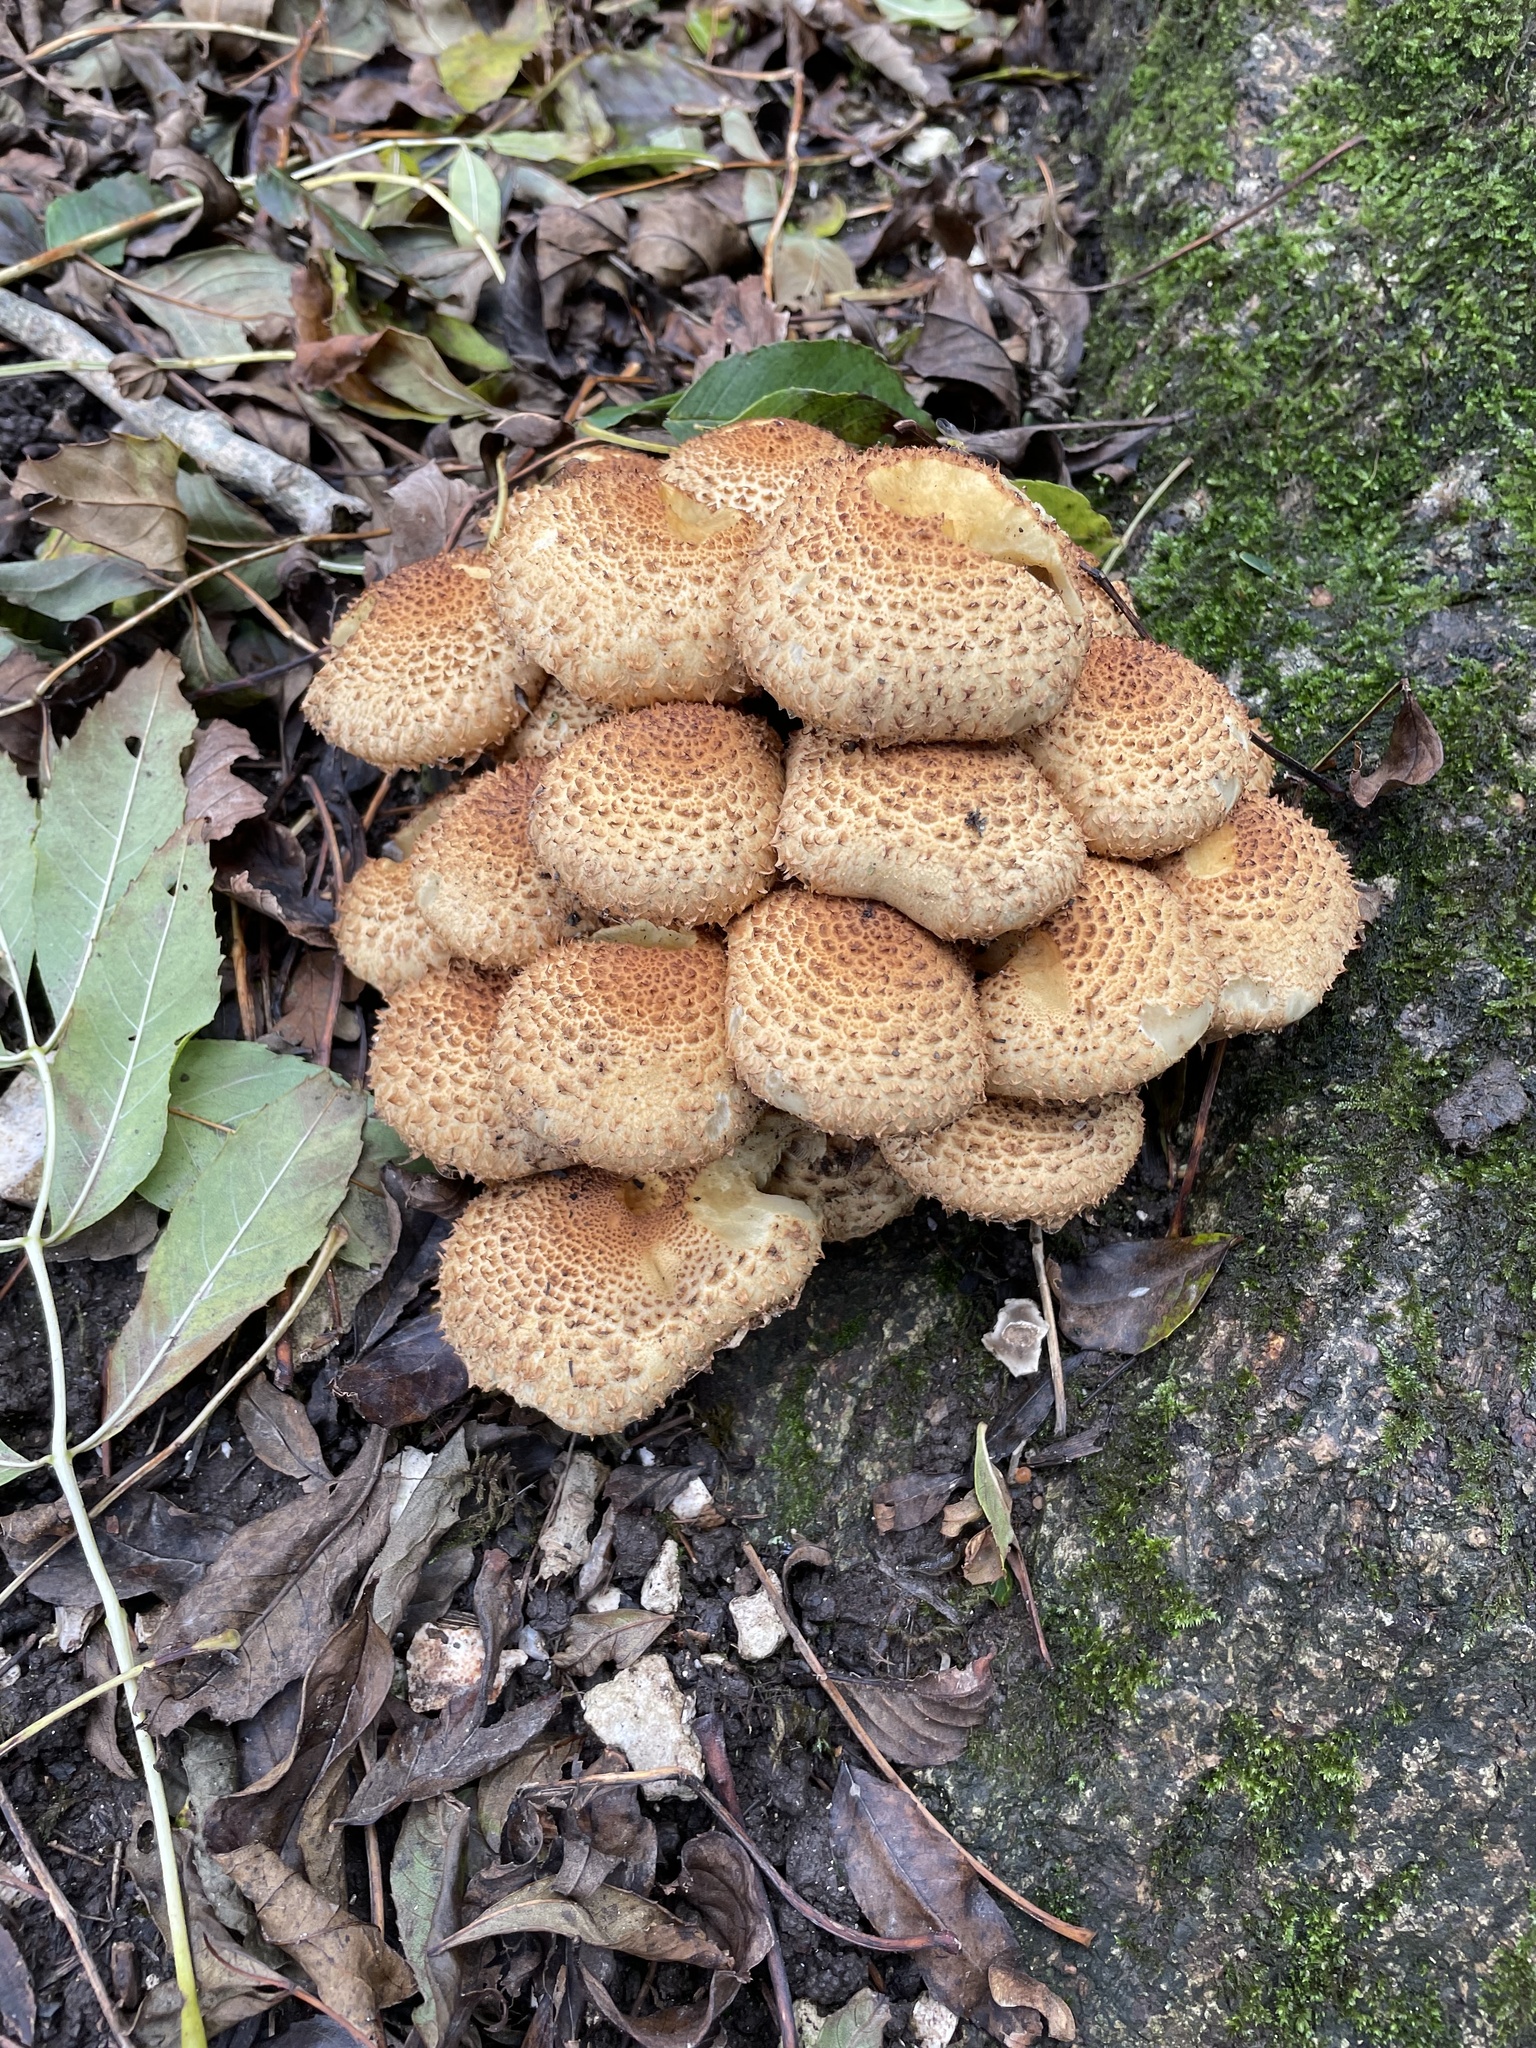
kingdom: Fungi
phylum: Basidiomycota
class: Agaricomycetes
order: Agaricales
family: Strophariaceae
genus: Pholiota
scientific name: Pholiota squarrosa
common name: Shaggy pholiota
